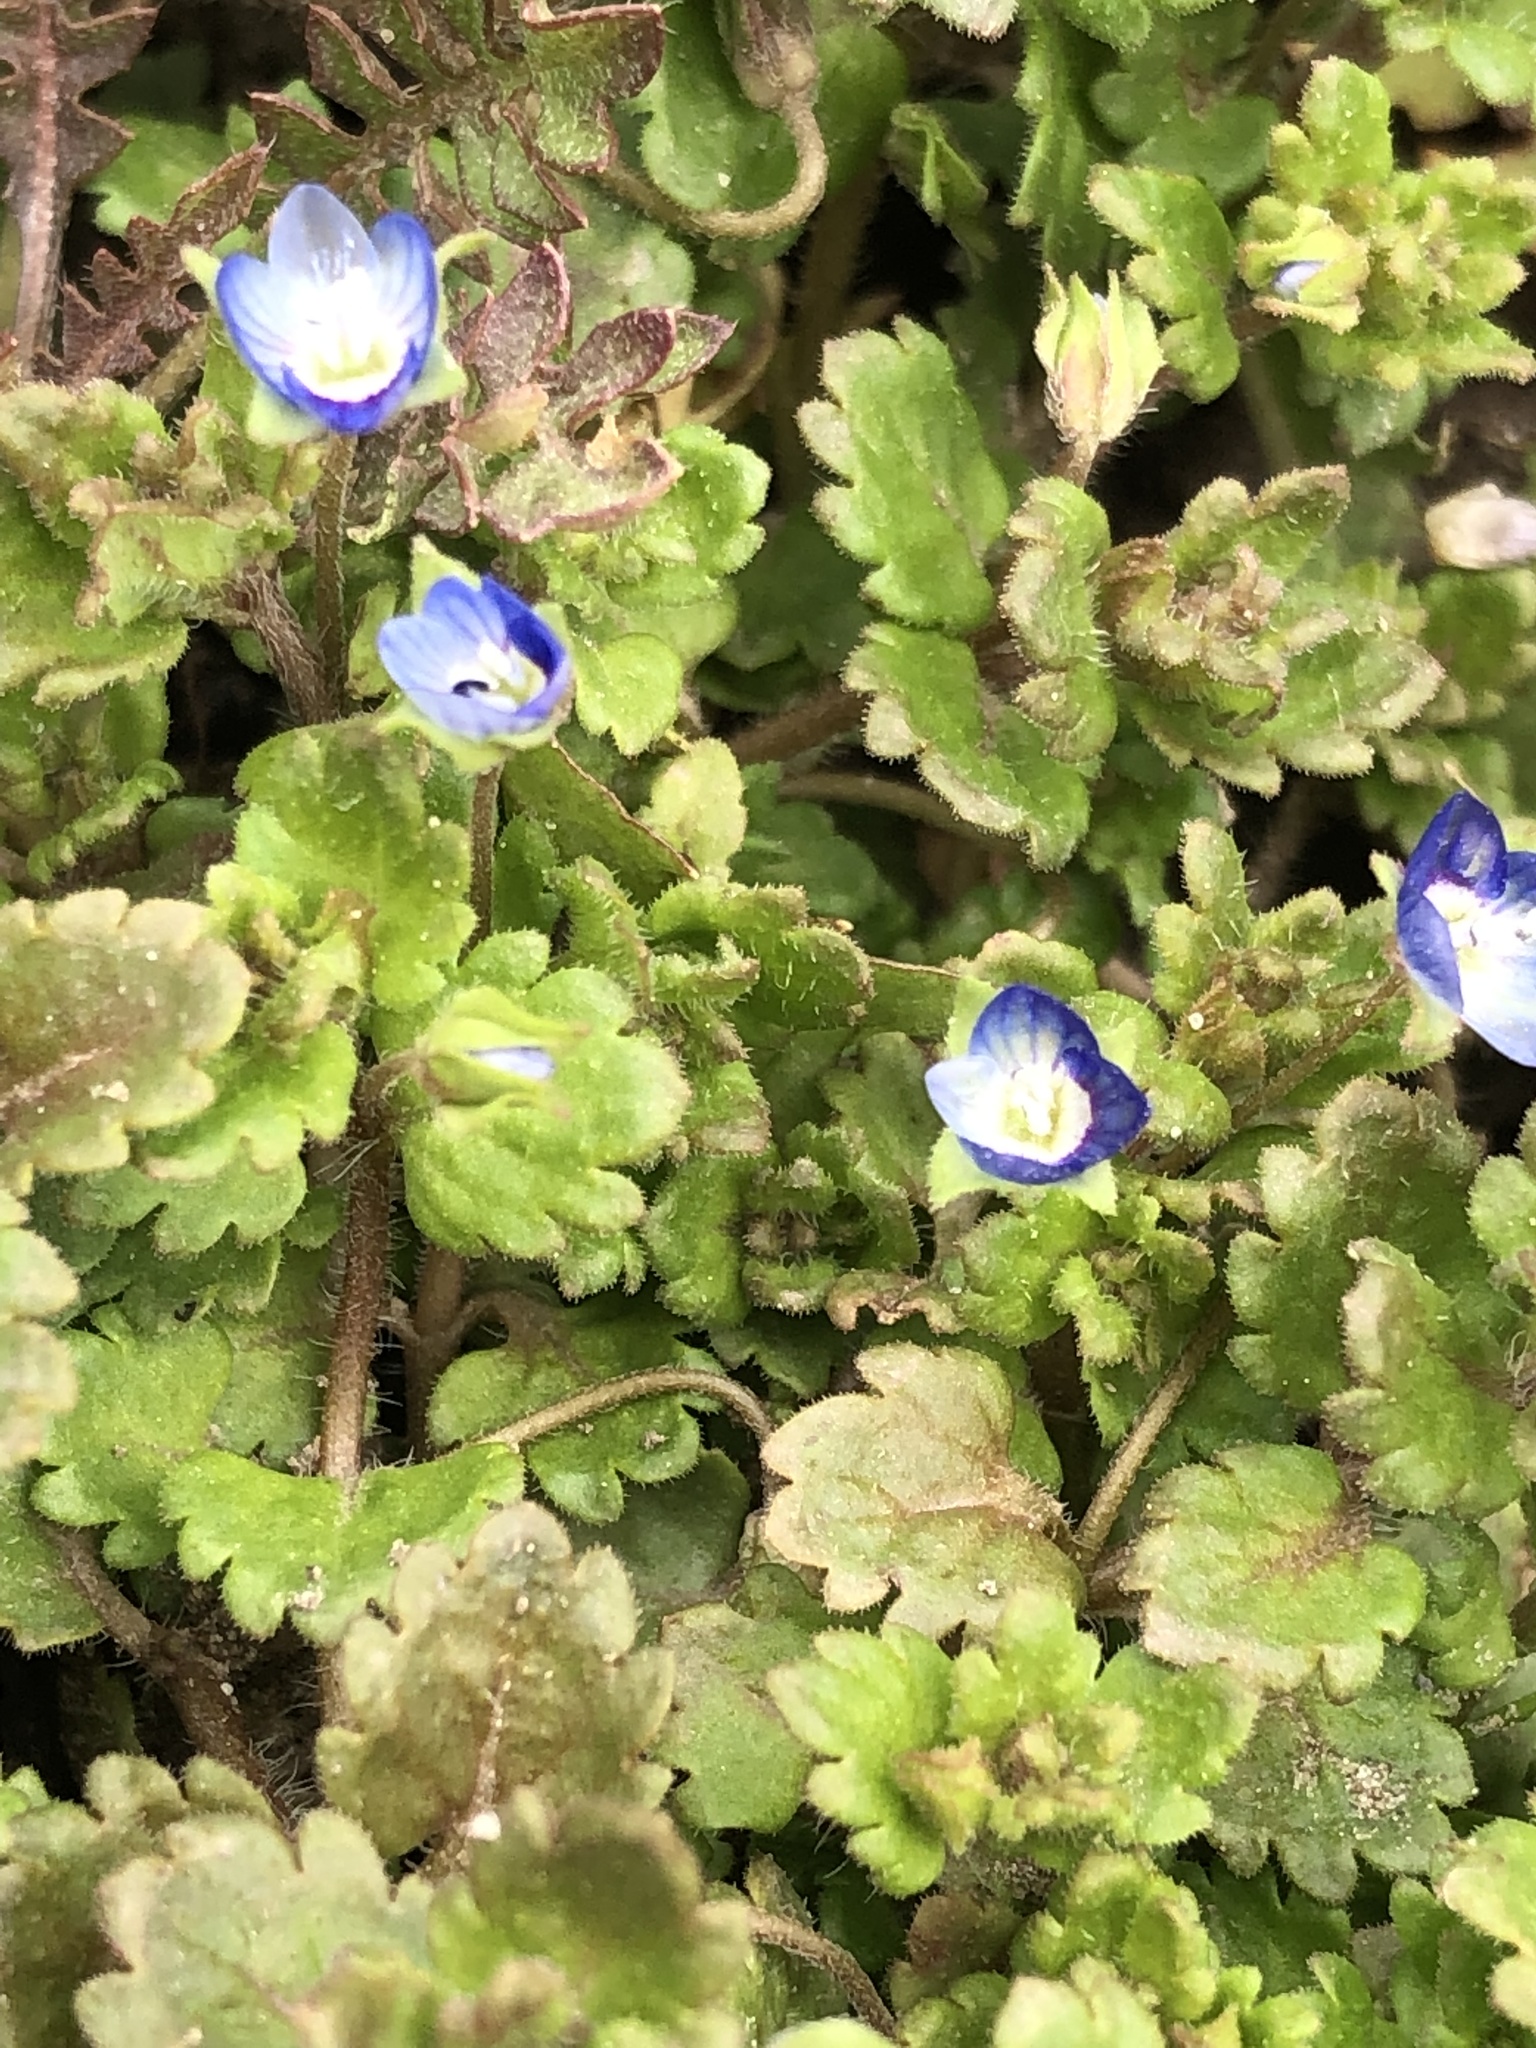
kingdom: Plantae
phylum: Tracheophyta
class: Magnoliopsida
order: Lamiales
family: Plantaginaceae
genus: Veronica
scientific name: Veronica polita
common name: Grey field-speedwell
